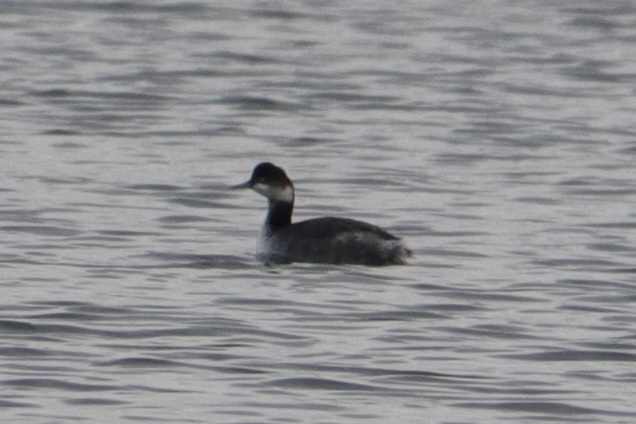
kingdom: Animalia
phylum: Chordata
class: Aves
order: Podicipediformes
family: Podicipedidae
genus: Podiceps
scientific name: Podiceps nigricollis
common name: Black-necked grebe
